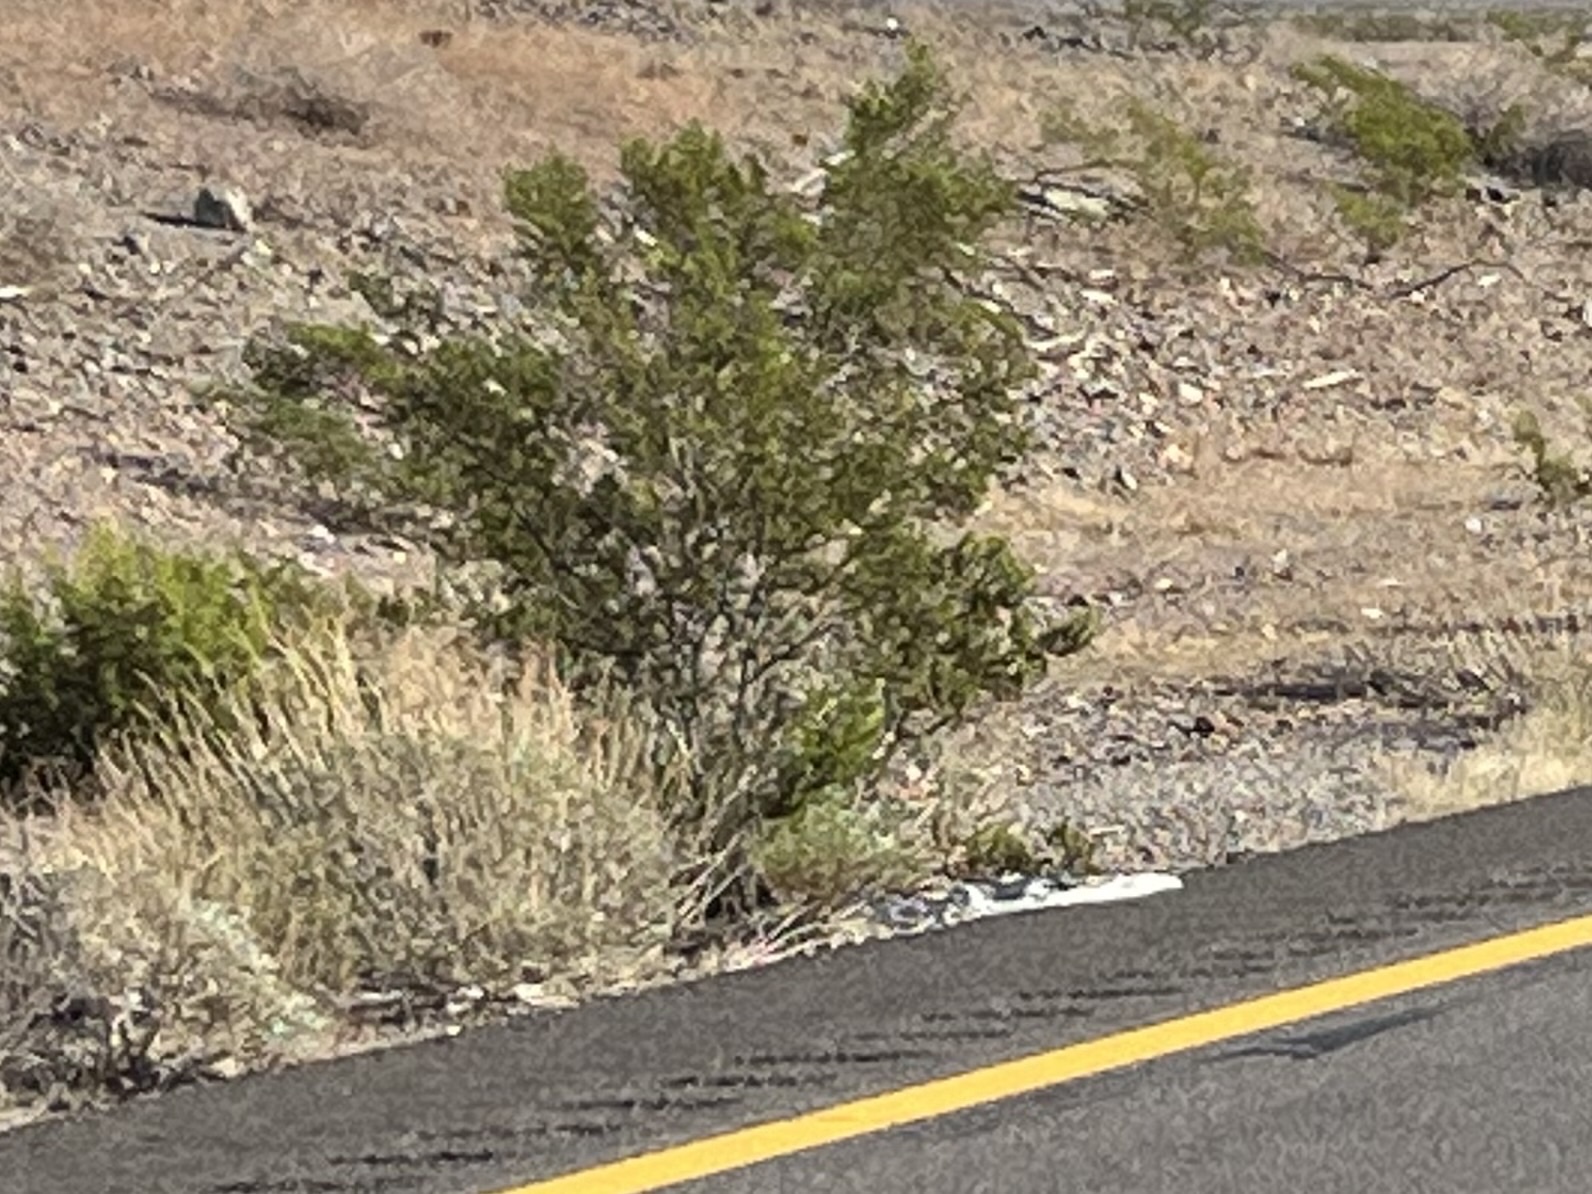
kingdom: Plantae
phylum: Tracheophyta
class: Magnoliopsida
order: Zygophyllales
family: Zygophyllaceae
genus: Larrea
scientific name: Larrea tridentata
